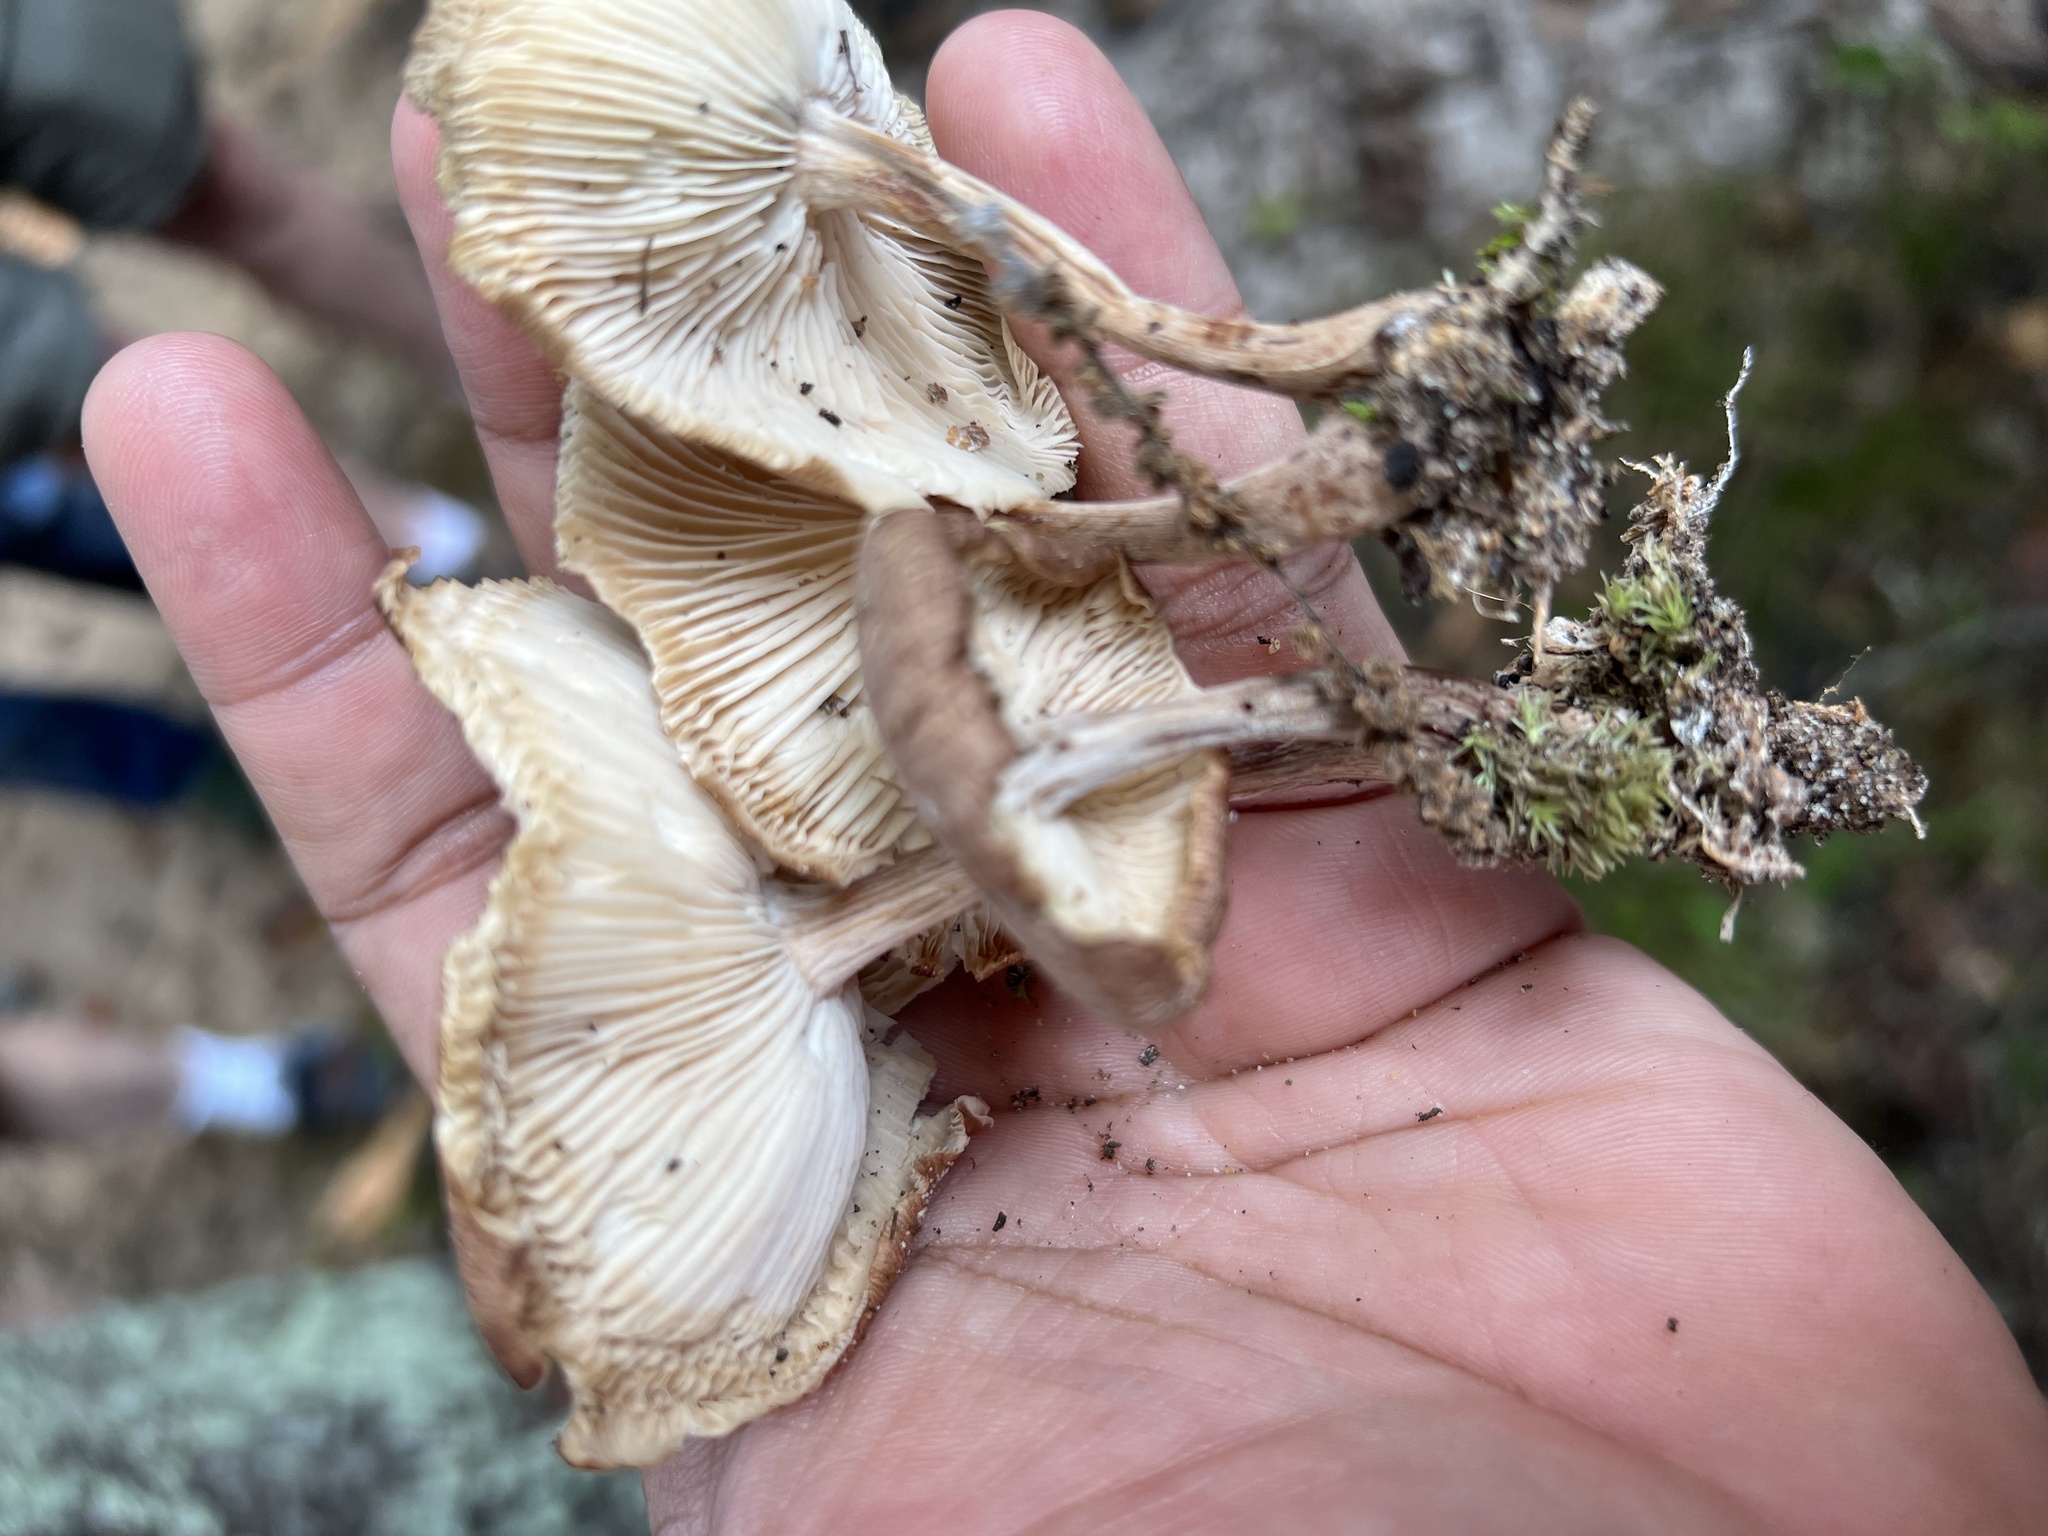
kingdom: Fungi
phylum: Basidiomycota
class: Agaricomycetes
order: Agaricales
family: Physalacriaceae
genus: Desarmillaria
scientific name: Desarmillaria caespitosa
